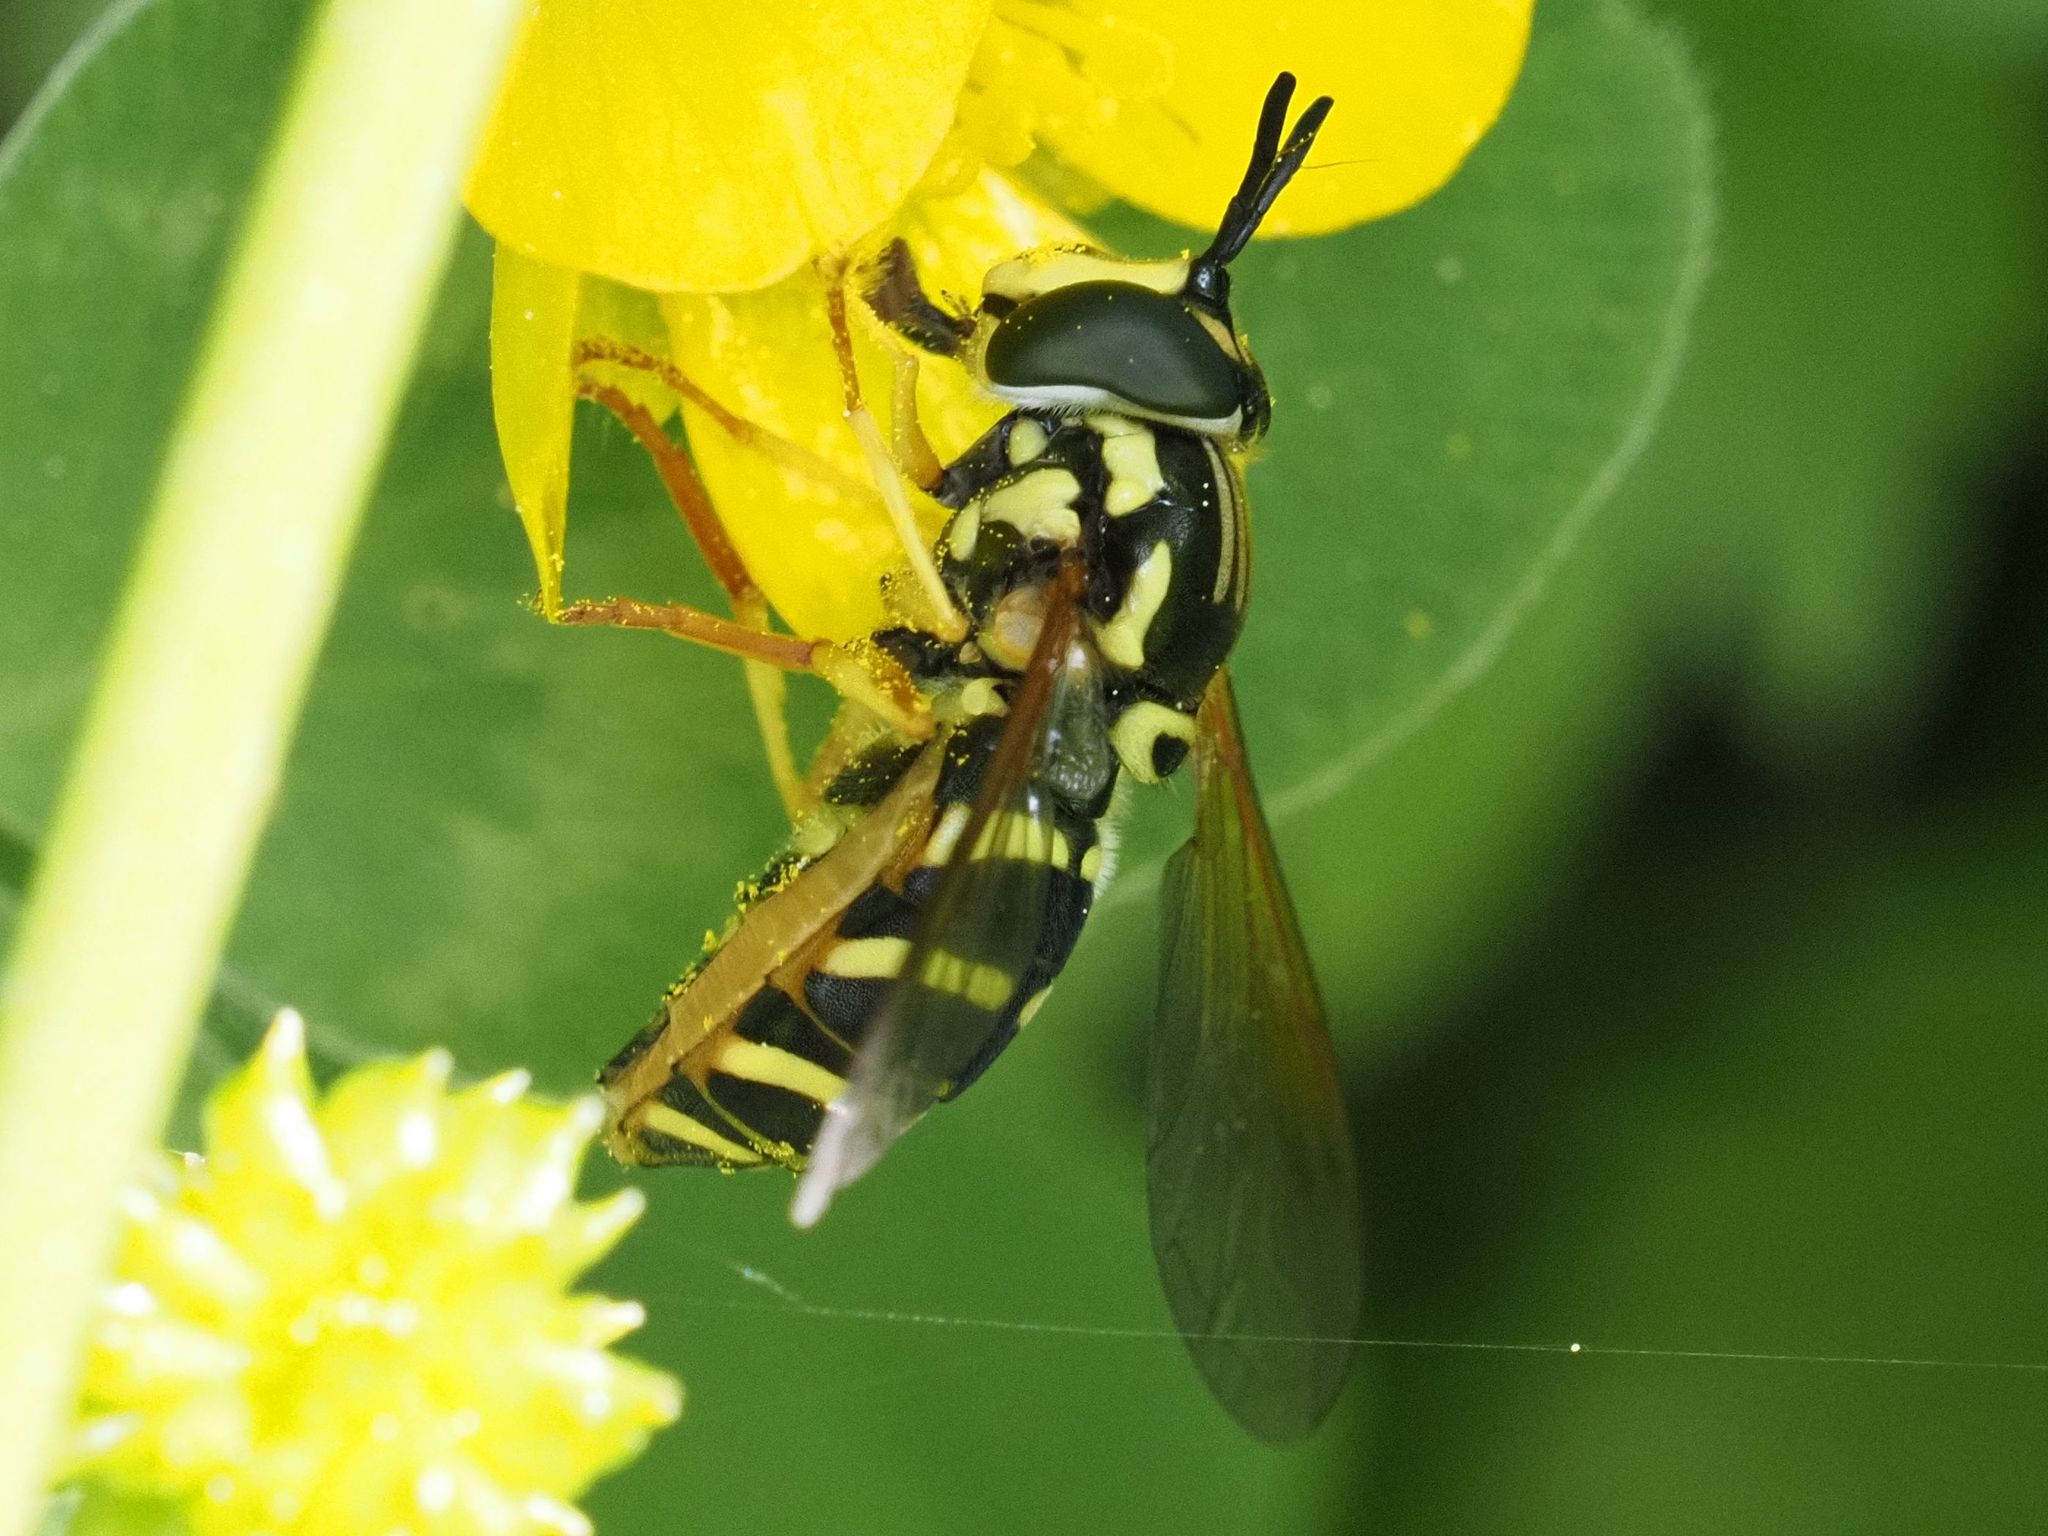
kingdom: Animalia
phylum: Arthropoda
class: Insecta
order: Diptera
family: Syrphidae
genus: Chrysotoxum
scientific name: Chrysotoxum elegans
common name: Zipperback
